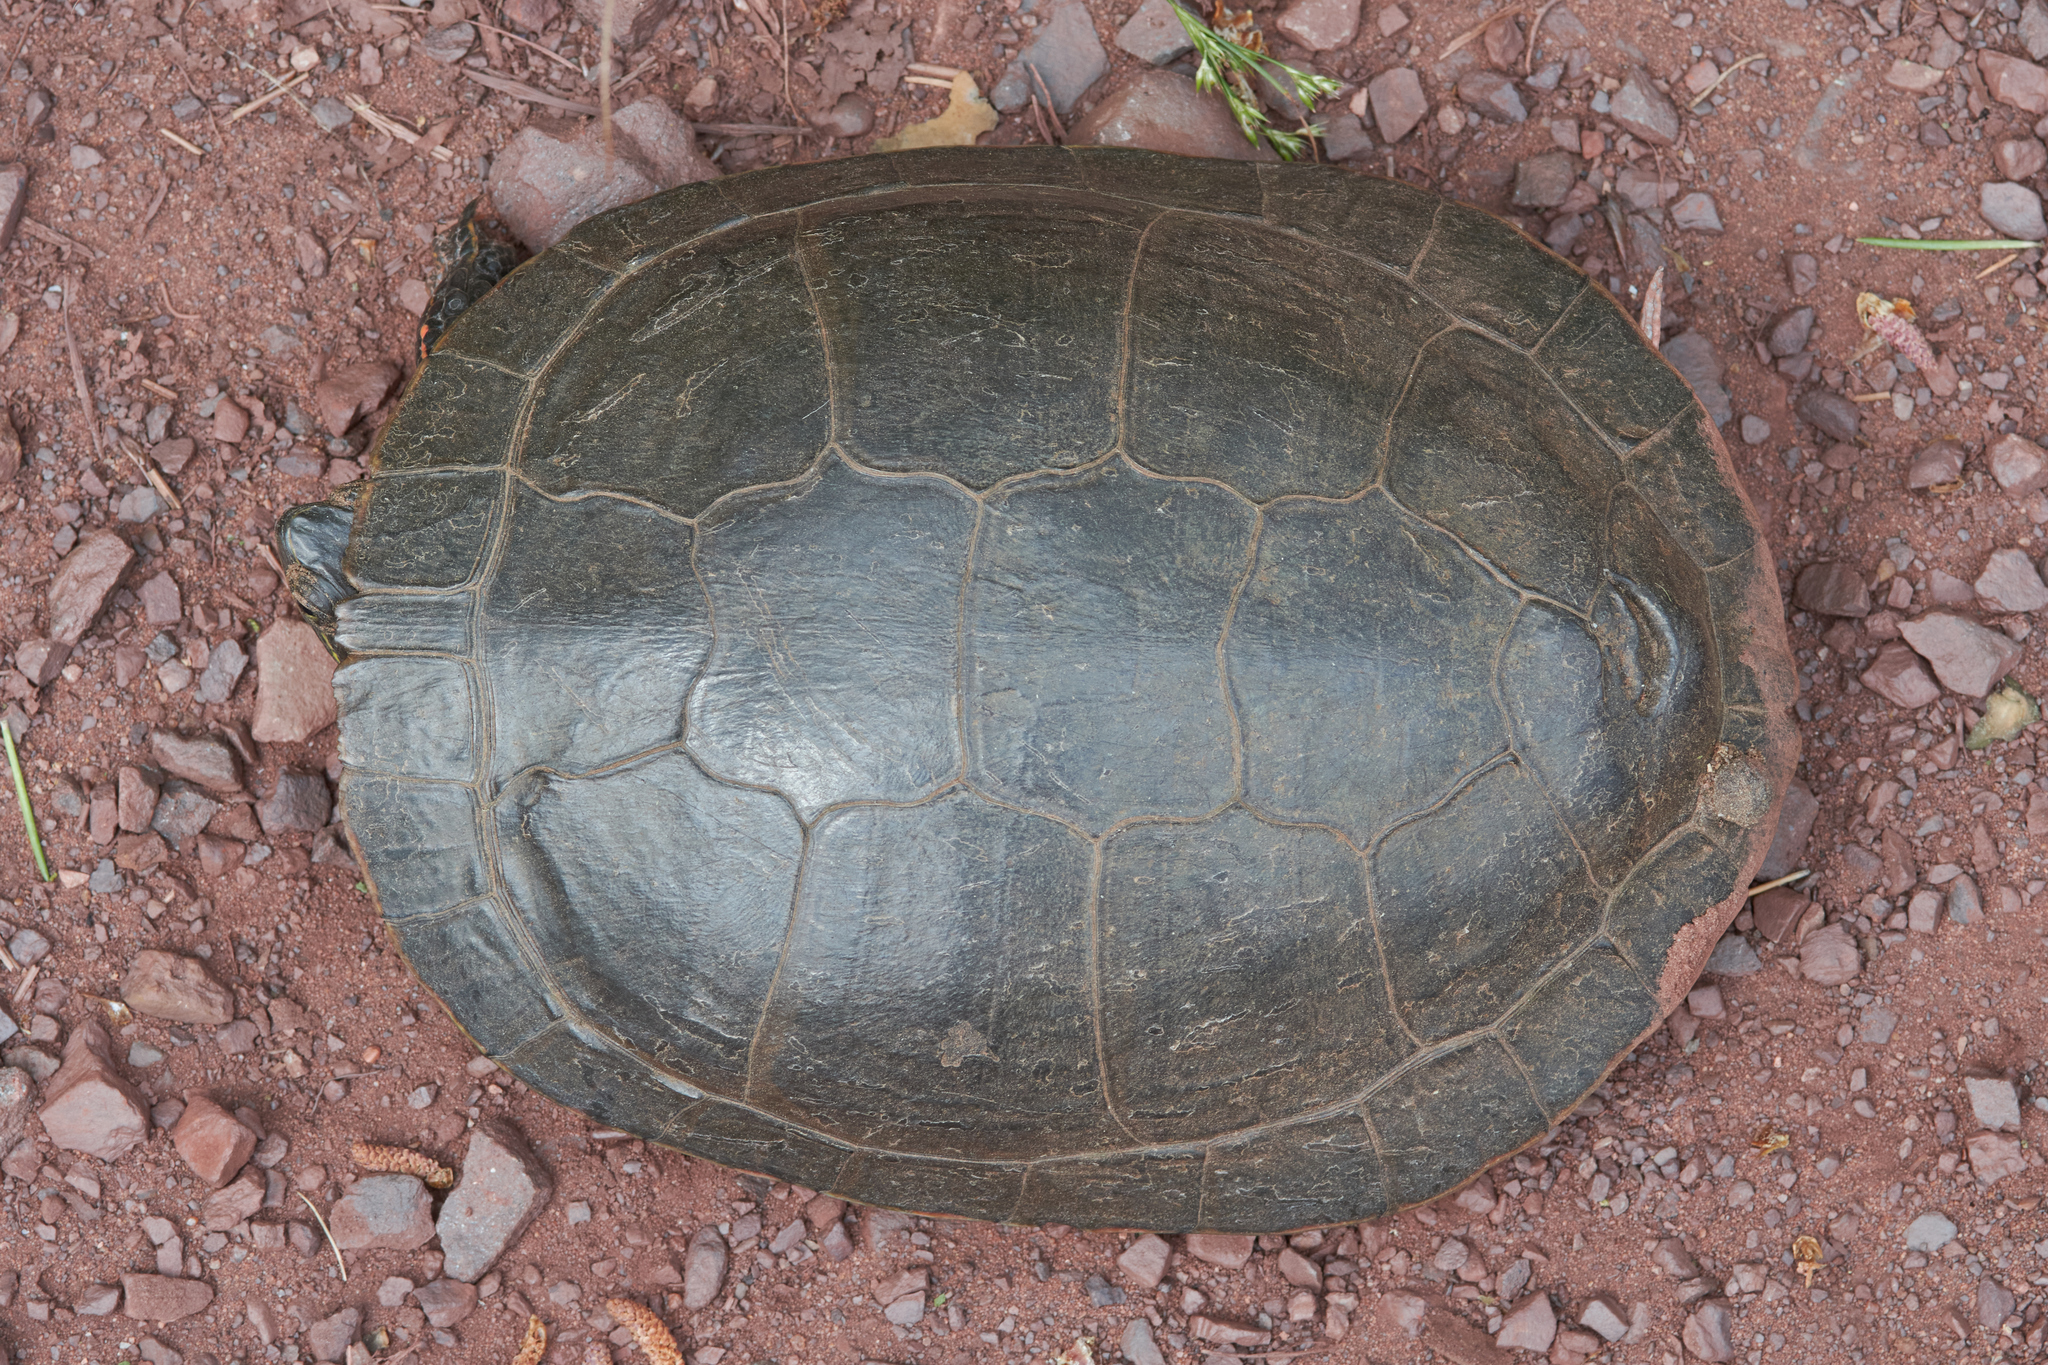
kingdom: Animalia
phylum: Chordata
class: Testudines
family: Emydidae
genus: Chrysemys
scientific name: Chrysemys picta
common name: Painted turtle
